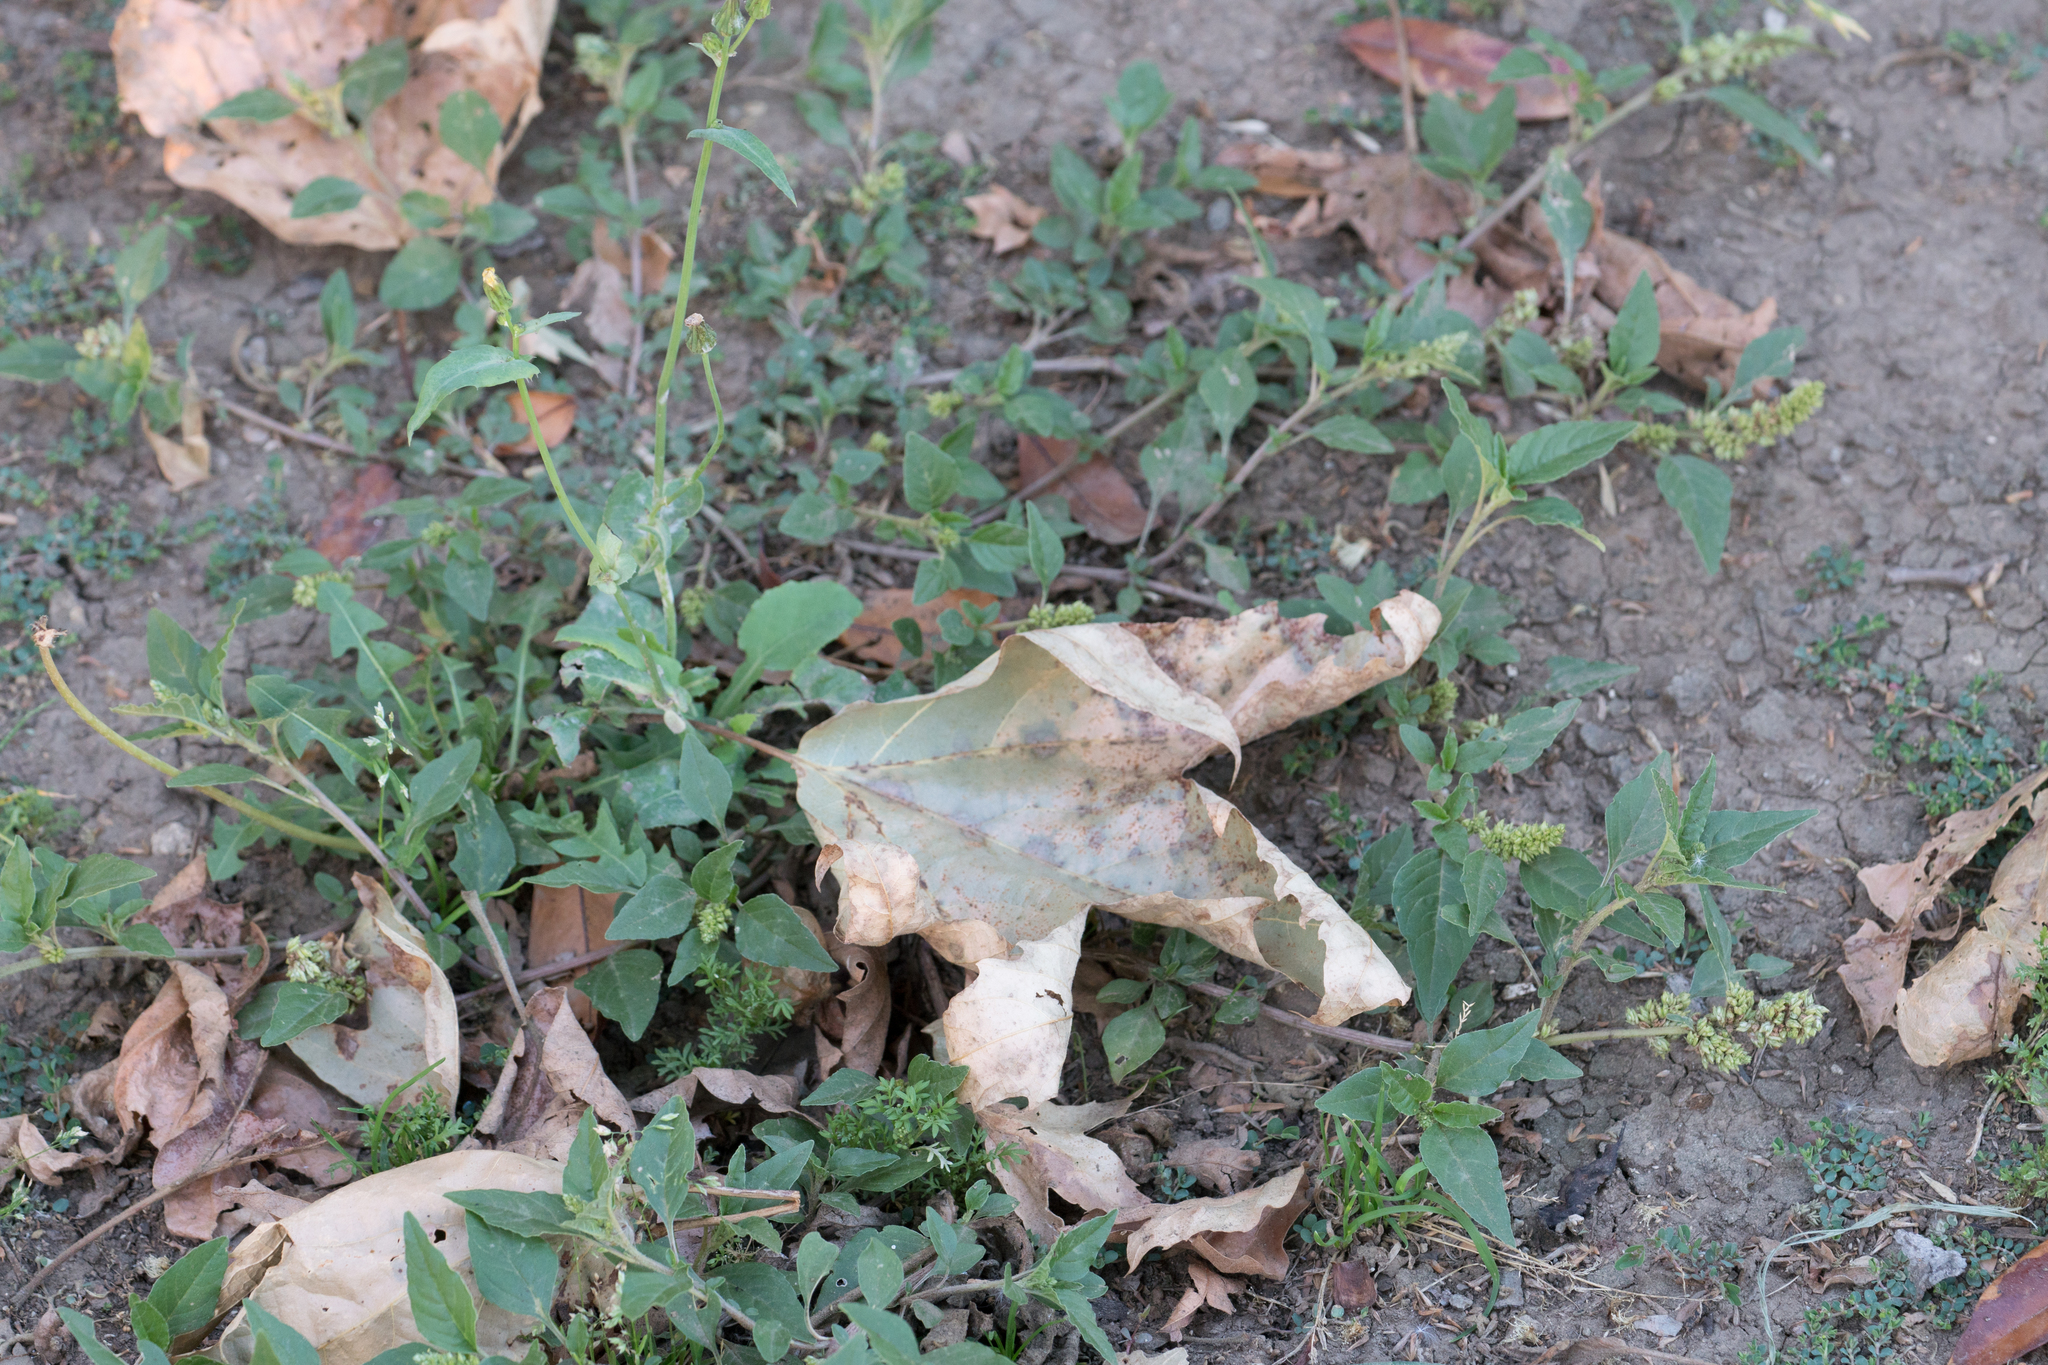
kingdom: Plantae
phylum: Tracheophyta
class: Magnoliopsida
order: Caryophyllales
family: Amaranthaceae
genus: Amaranthus
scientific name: Amaranthus deflexus
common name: Perennial pigweed
